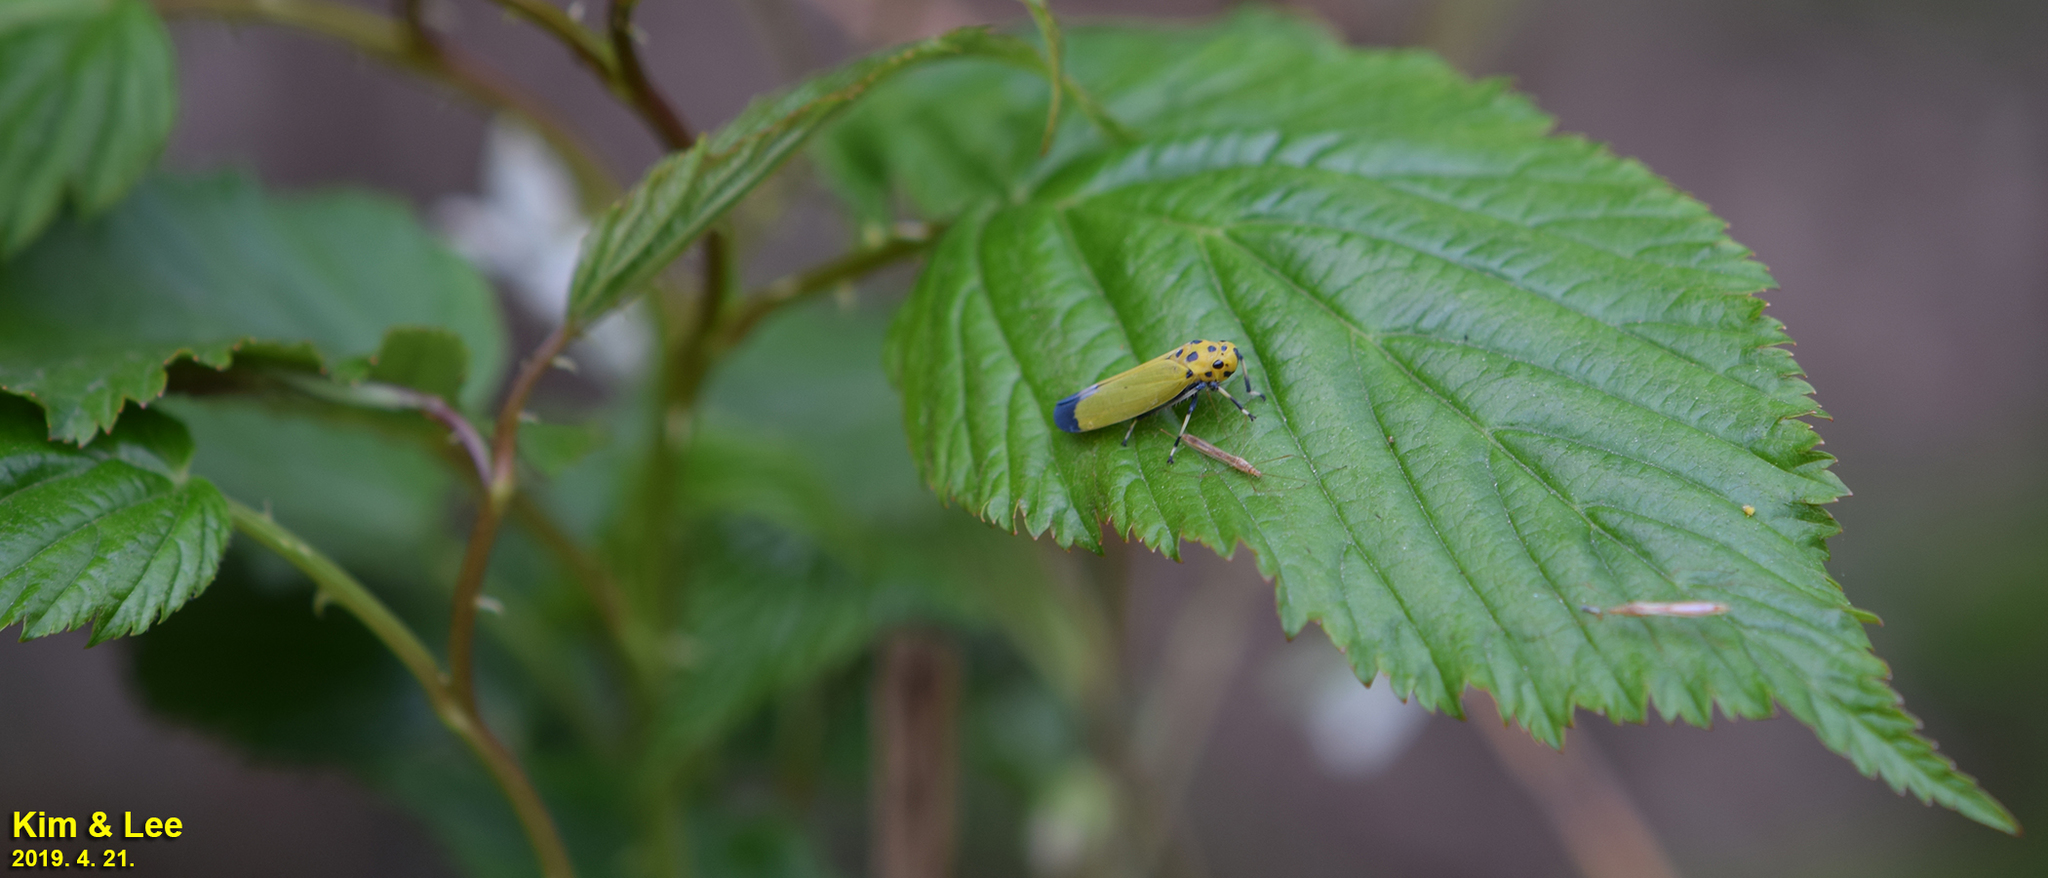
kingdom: Animalia
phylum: Arthropoda
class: Insecta
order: Hemiptera
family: Cicadellidae
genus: Bothrogonia
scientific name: Bothrogonia ferruginea
